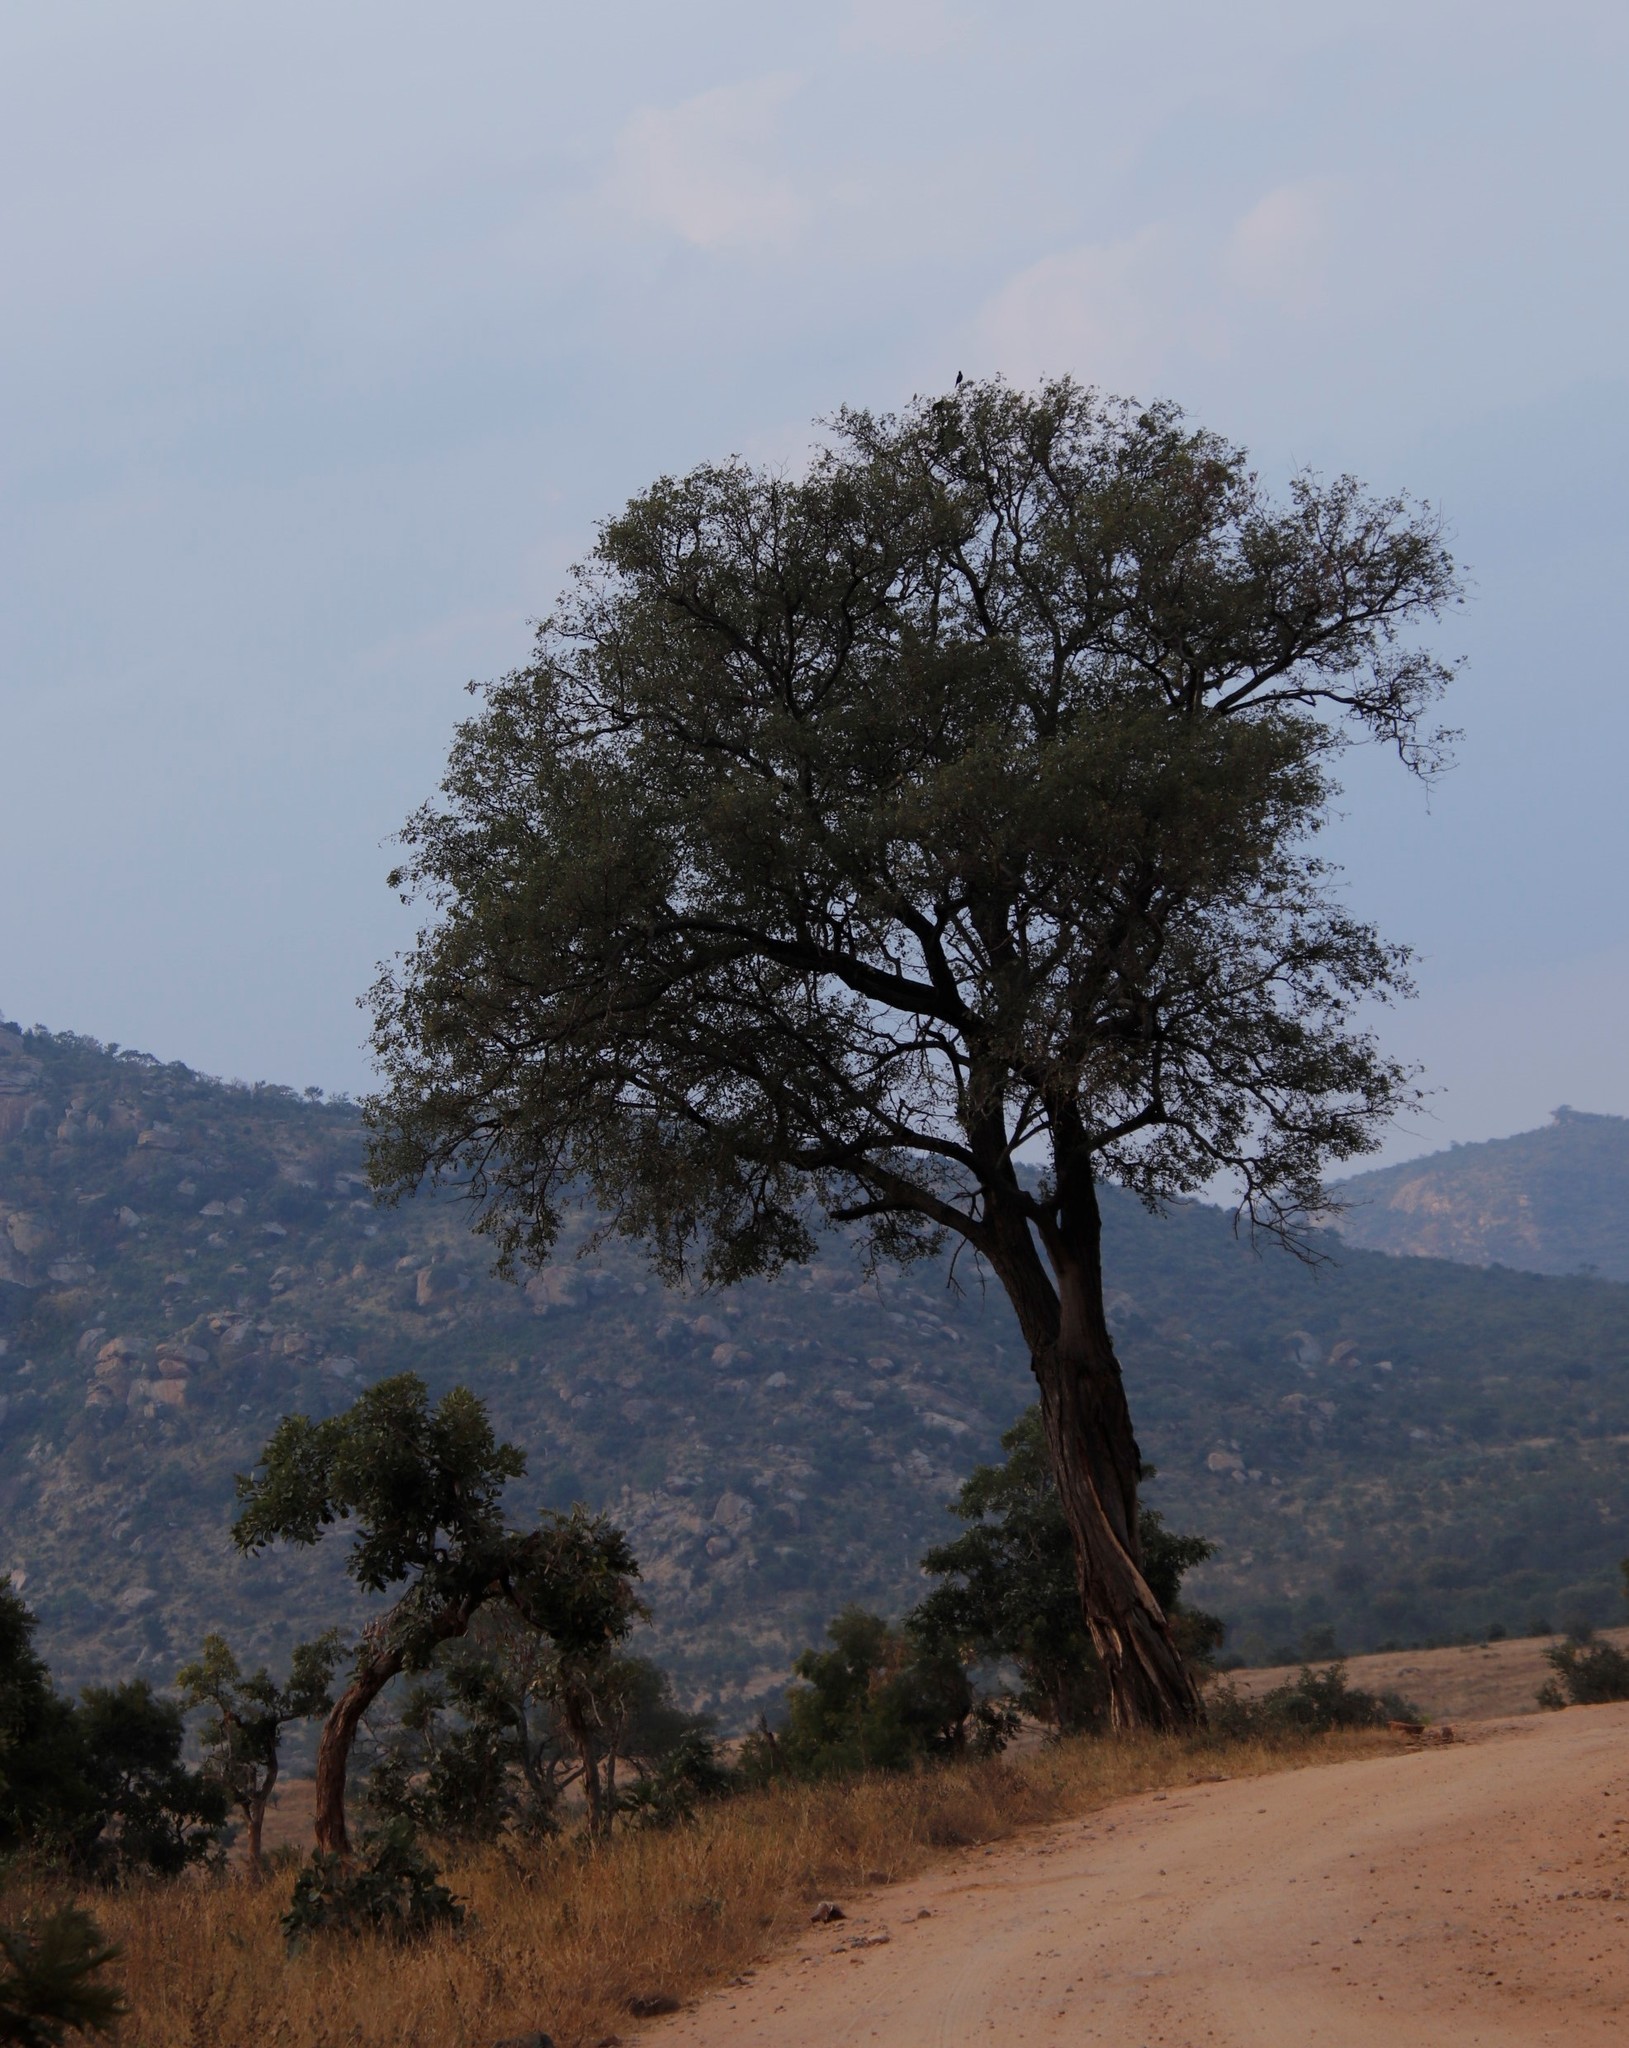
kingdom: Plantae
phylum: Tracheophyta
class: Magnoliopsida
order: Fabales
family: Fabaceae
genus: Senegalia
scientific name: Senegalia nigrescens
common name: Knobthorn
